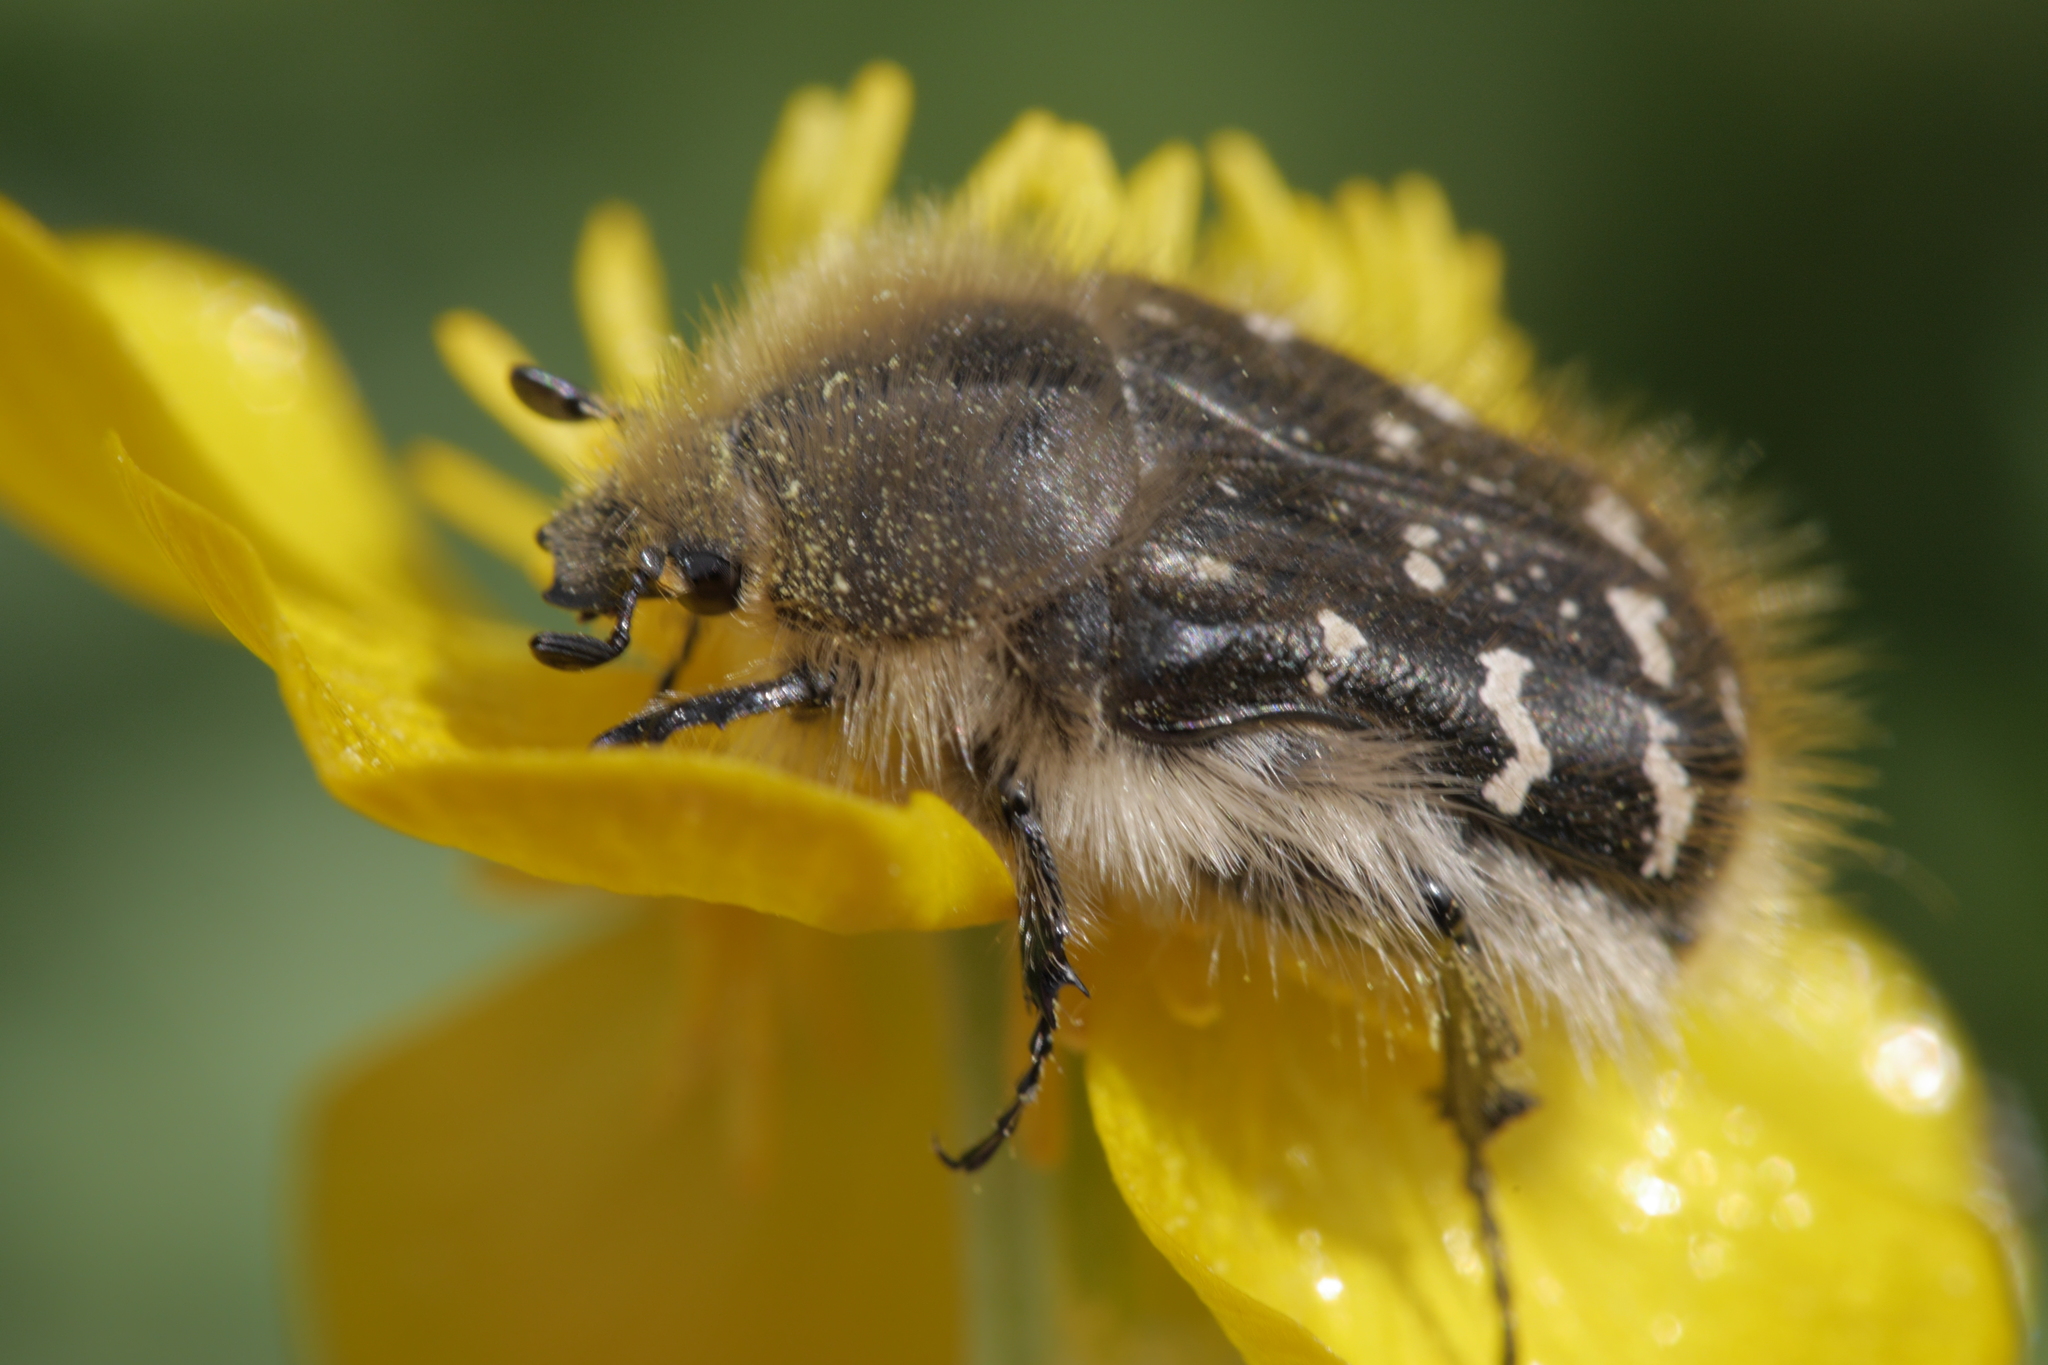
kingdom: Animalia
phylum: Arthropoda
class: Insecta
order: Coleoptera
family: Scarabaeidae
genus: Tropinota
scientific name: Tropinota hirta
